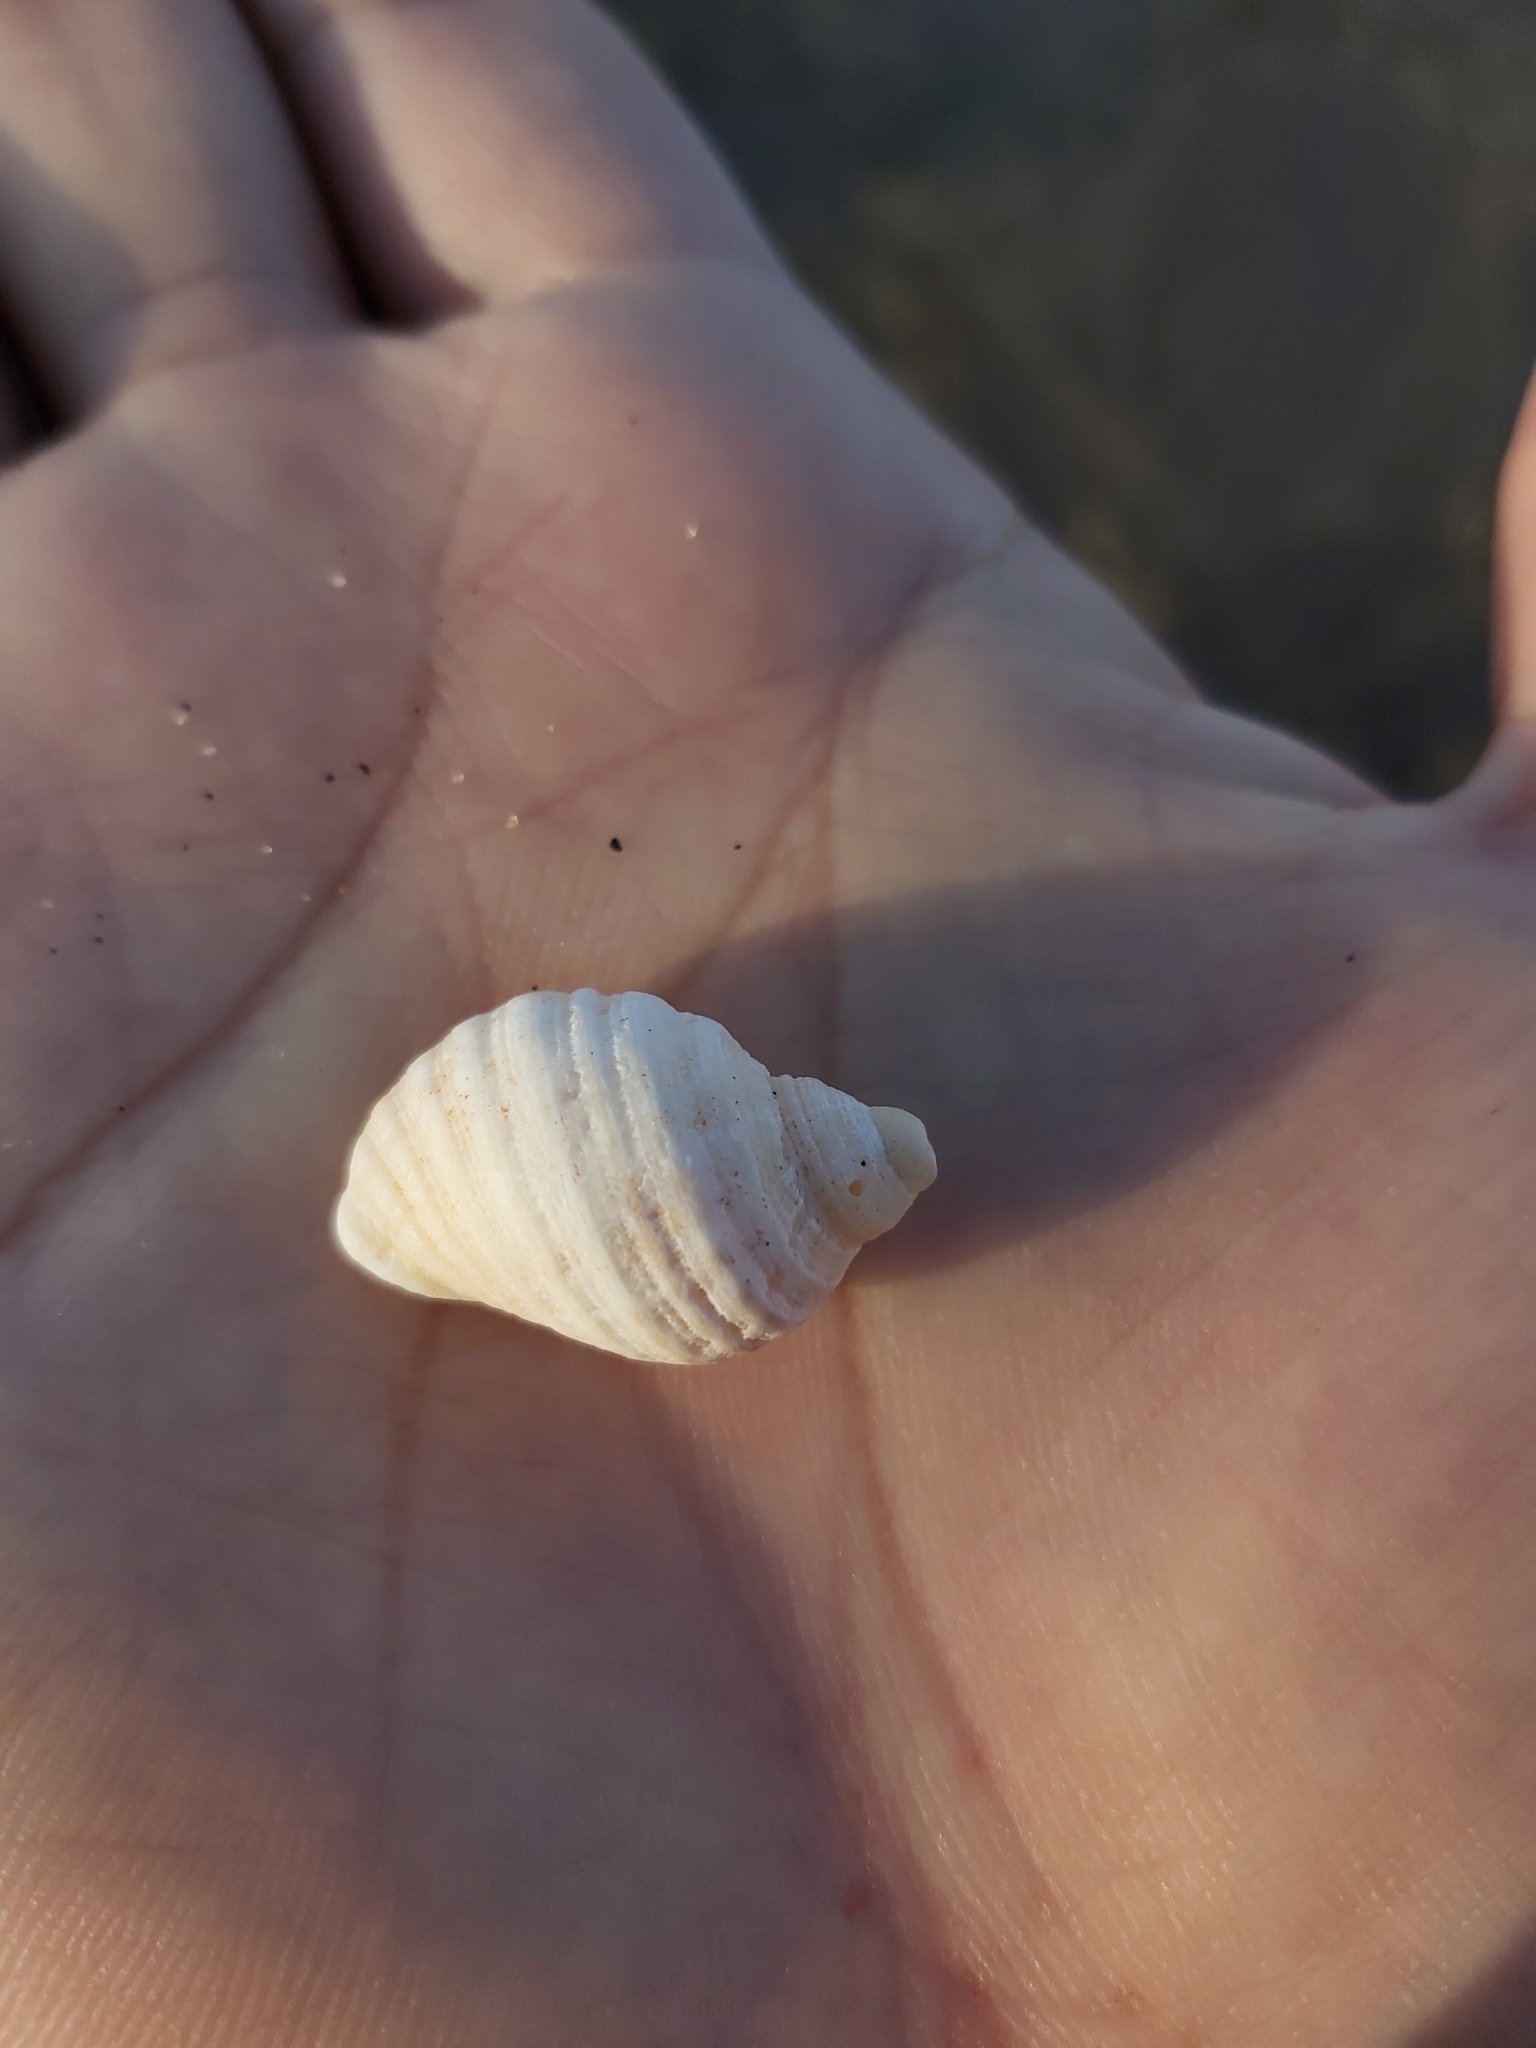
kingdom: Animalia
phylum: Mollusca
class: Gastropoda
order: Neogastropoda
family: Muricidae
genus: Dicathais
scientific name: Dicathais orbita
